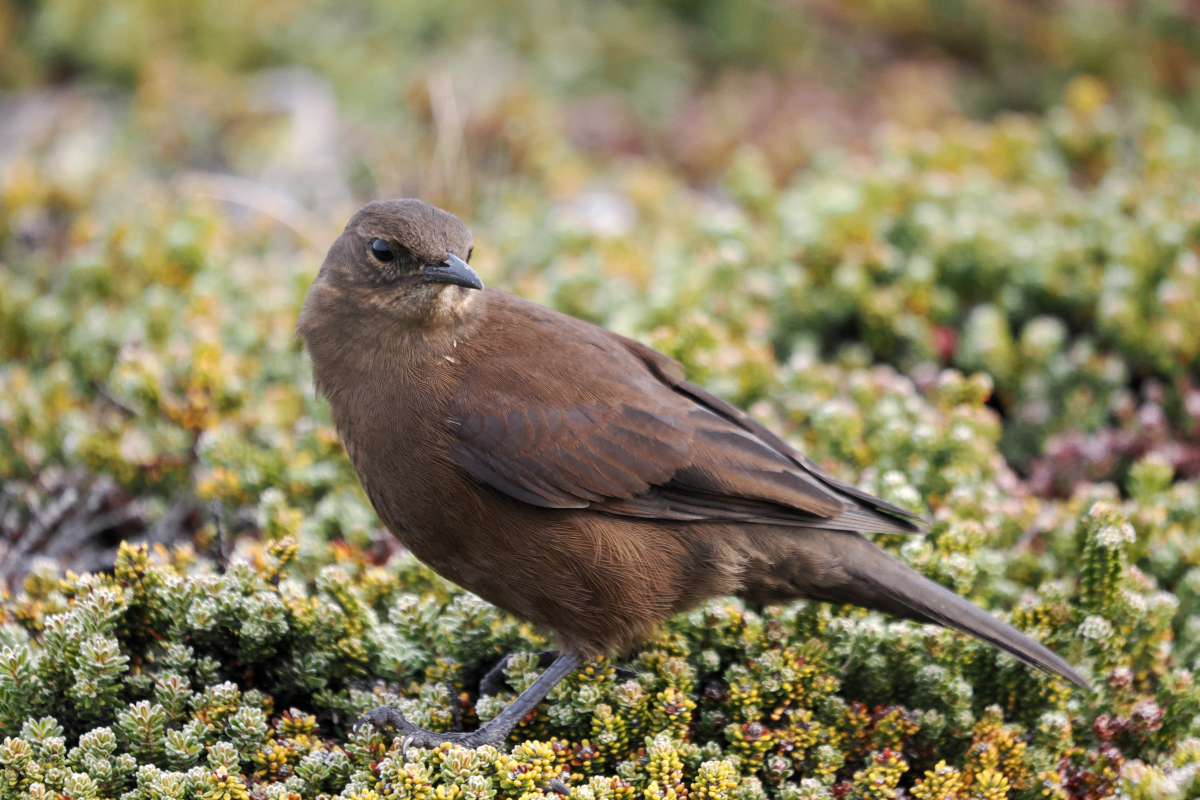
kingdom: Animalia
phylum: Chordata
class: Aves
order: Passeriformes
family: Furnariidae
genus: Cinclodes
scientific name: Cinclodes antarcticus
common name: Blackish cinclodes
